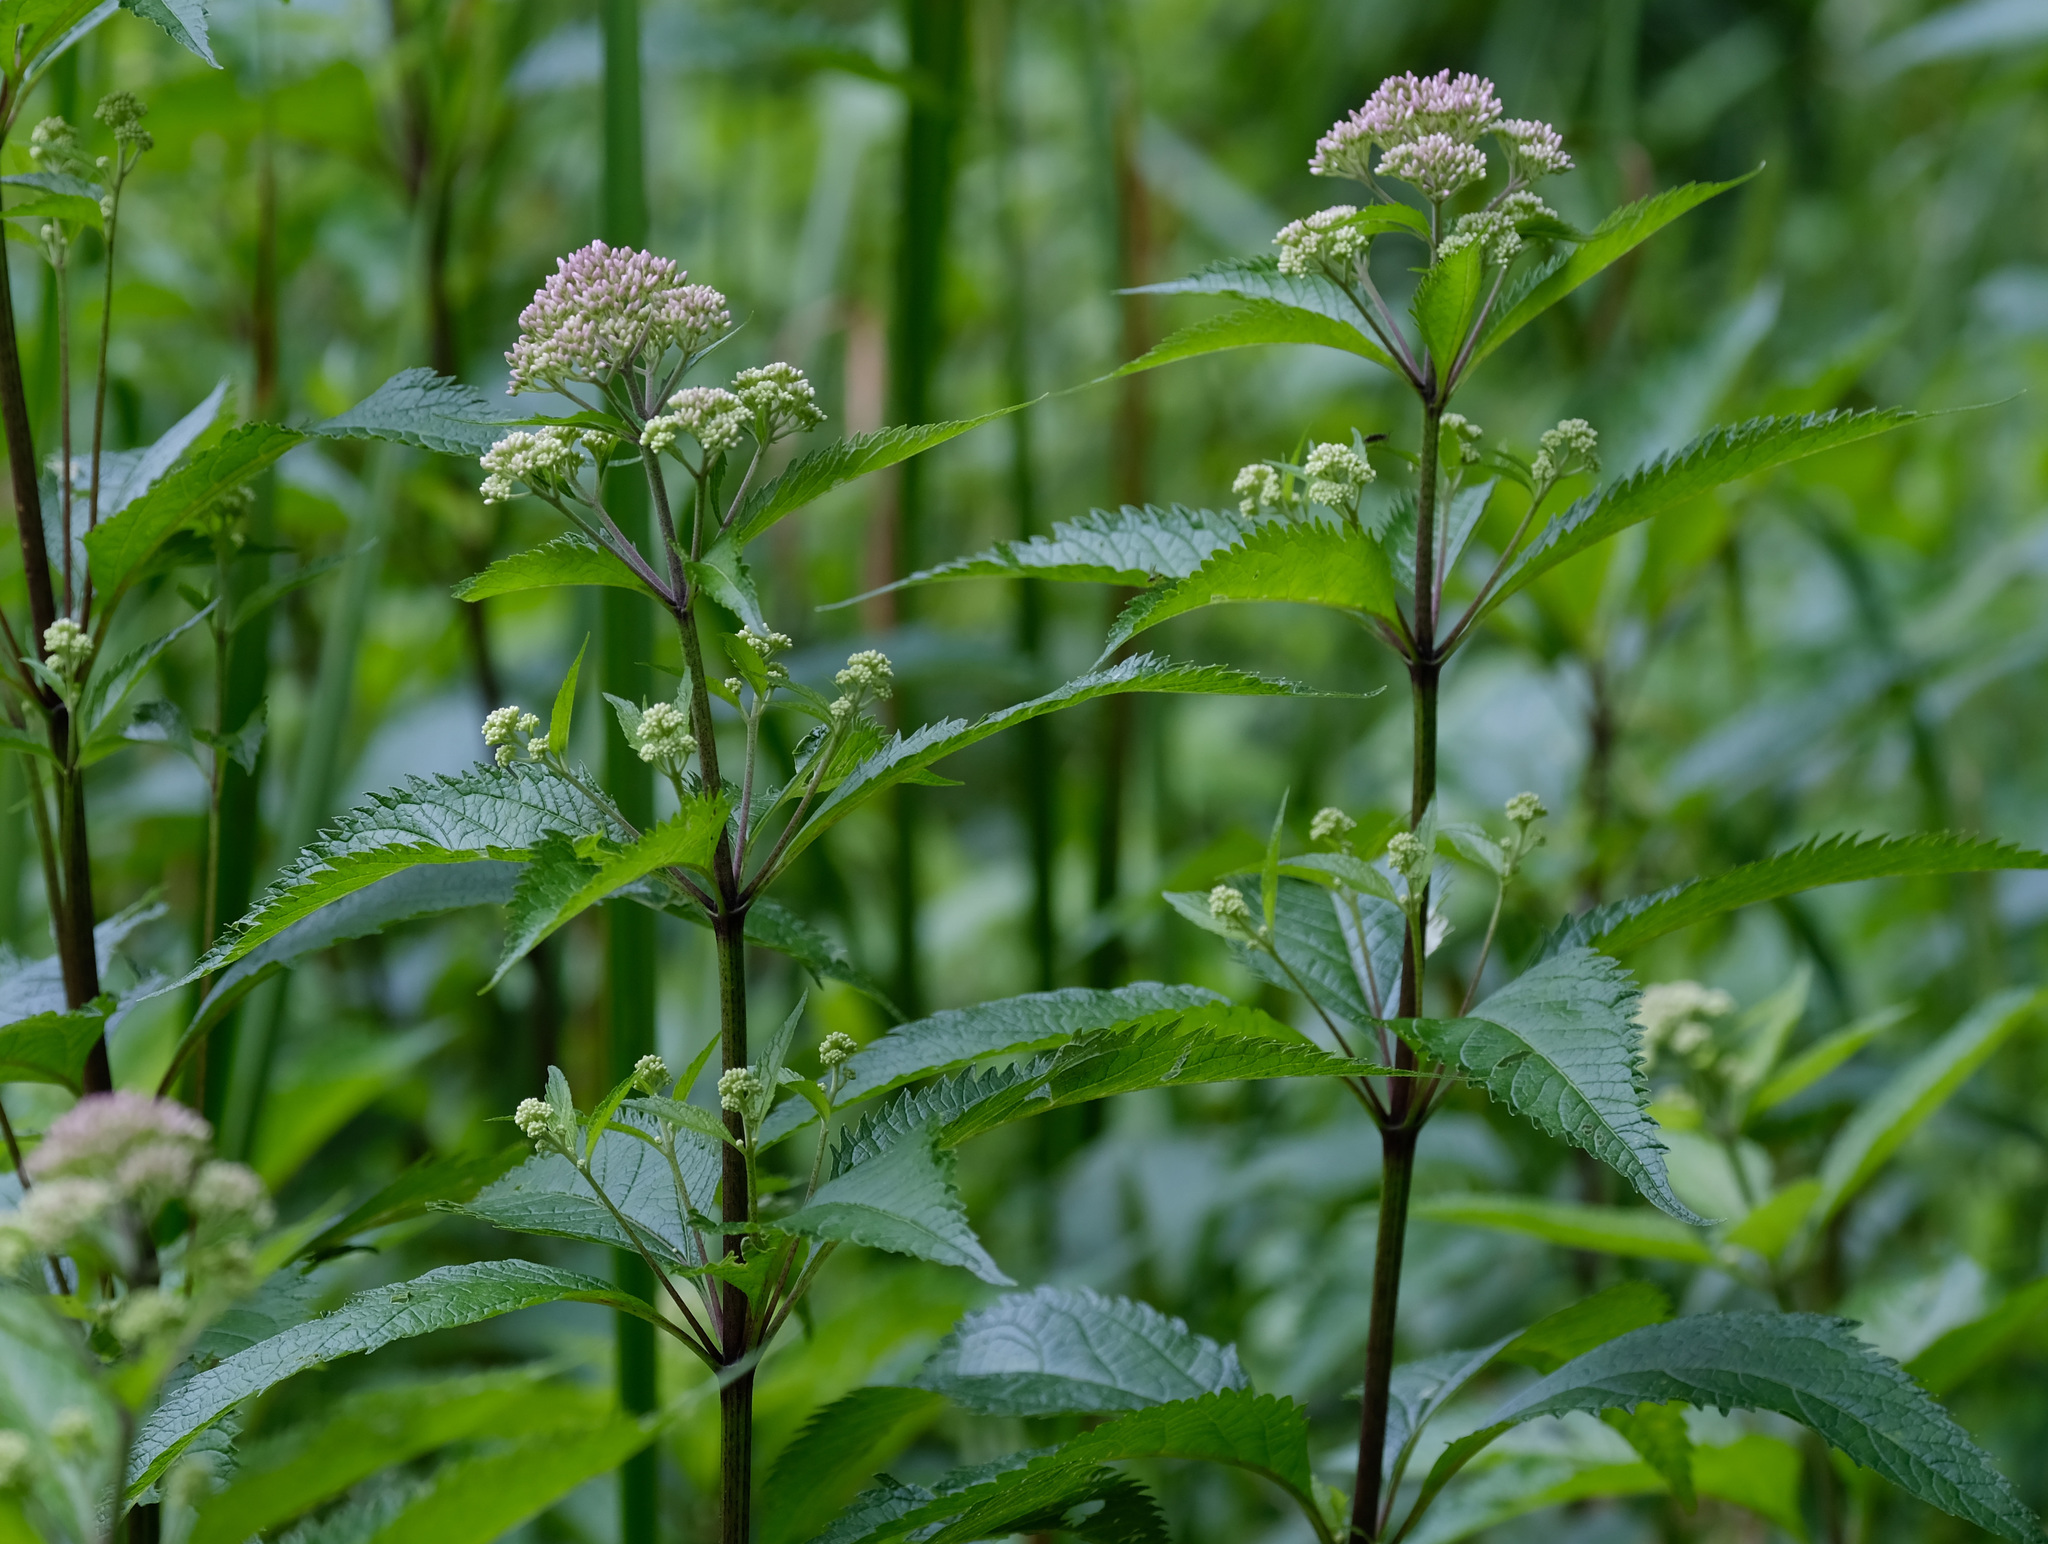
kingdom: Plantae
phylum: Tracheophyta
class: Magnoliopsida
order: Asterales
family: Asteraceae
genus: Eutrochium
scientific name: Eutrochium maculatum
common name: Spotted joe pye weed
